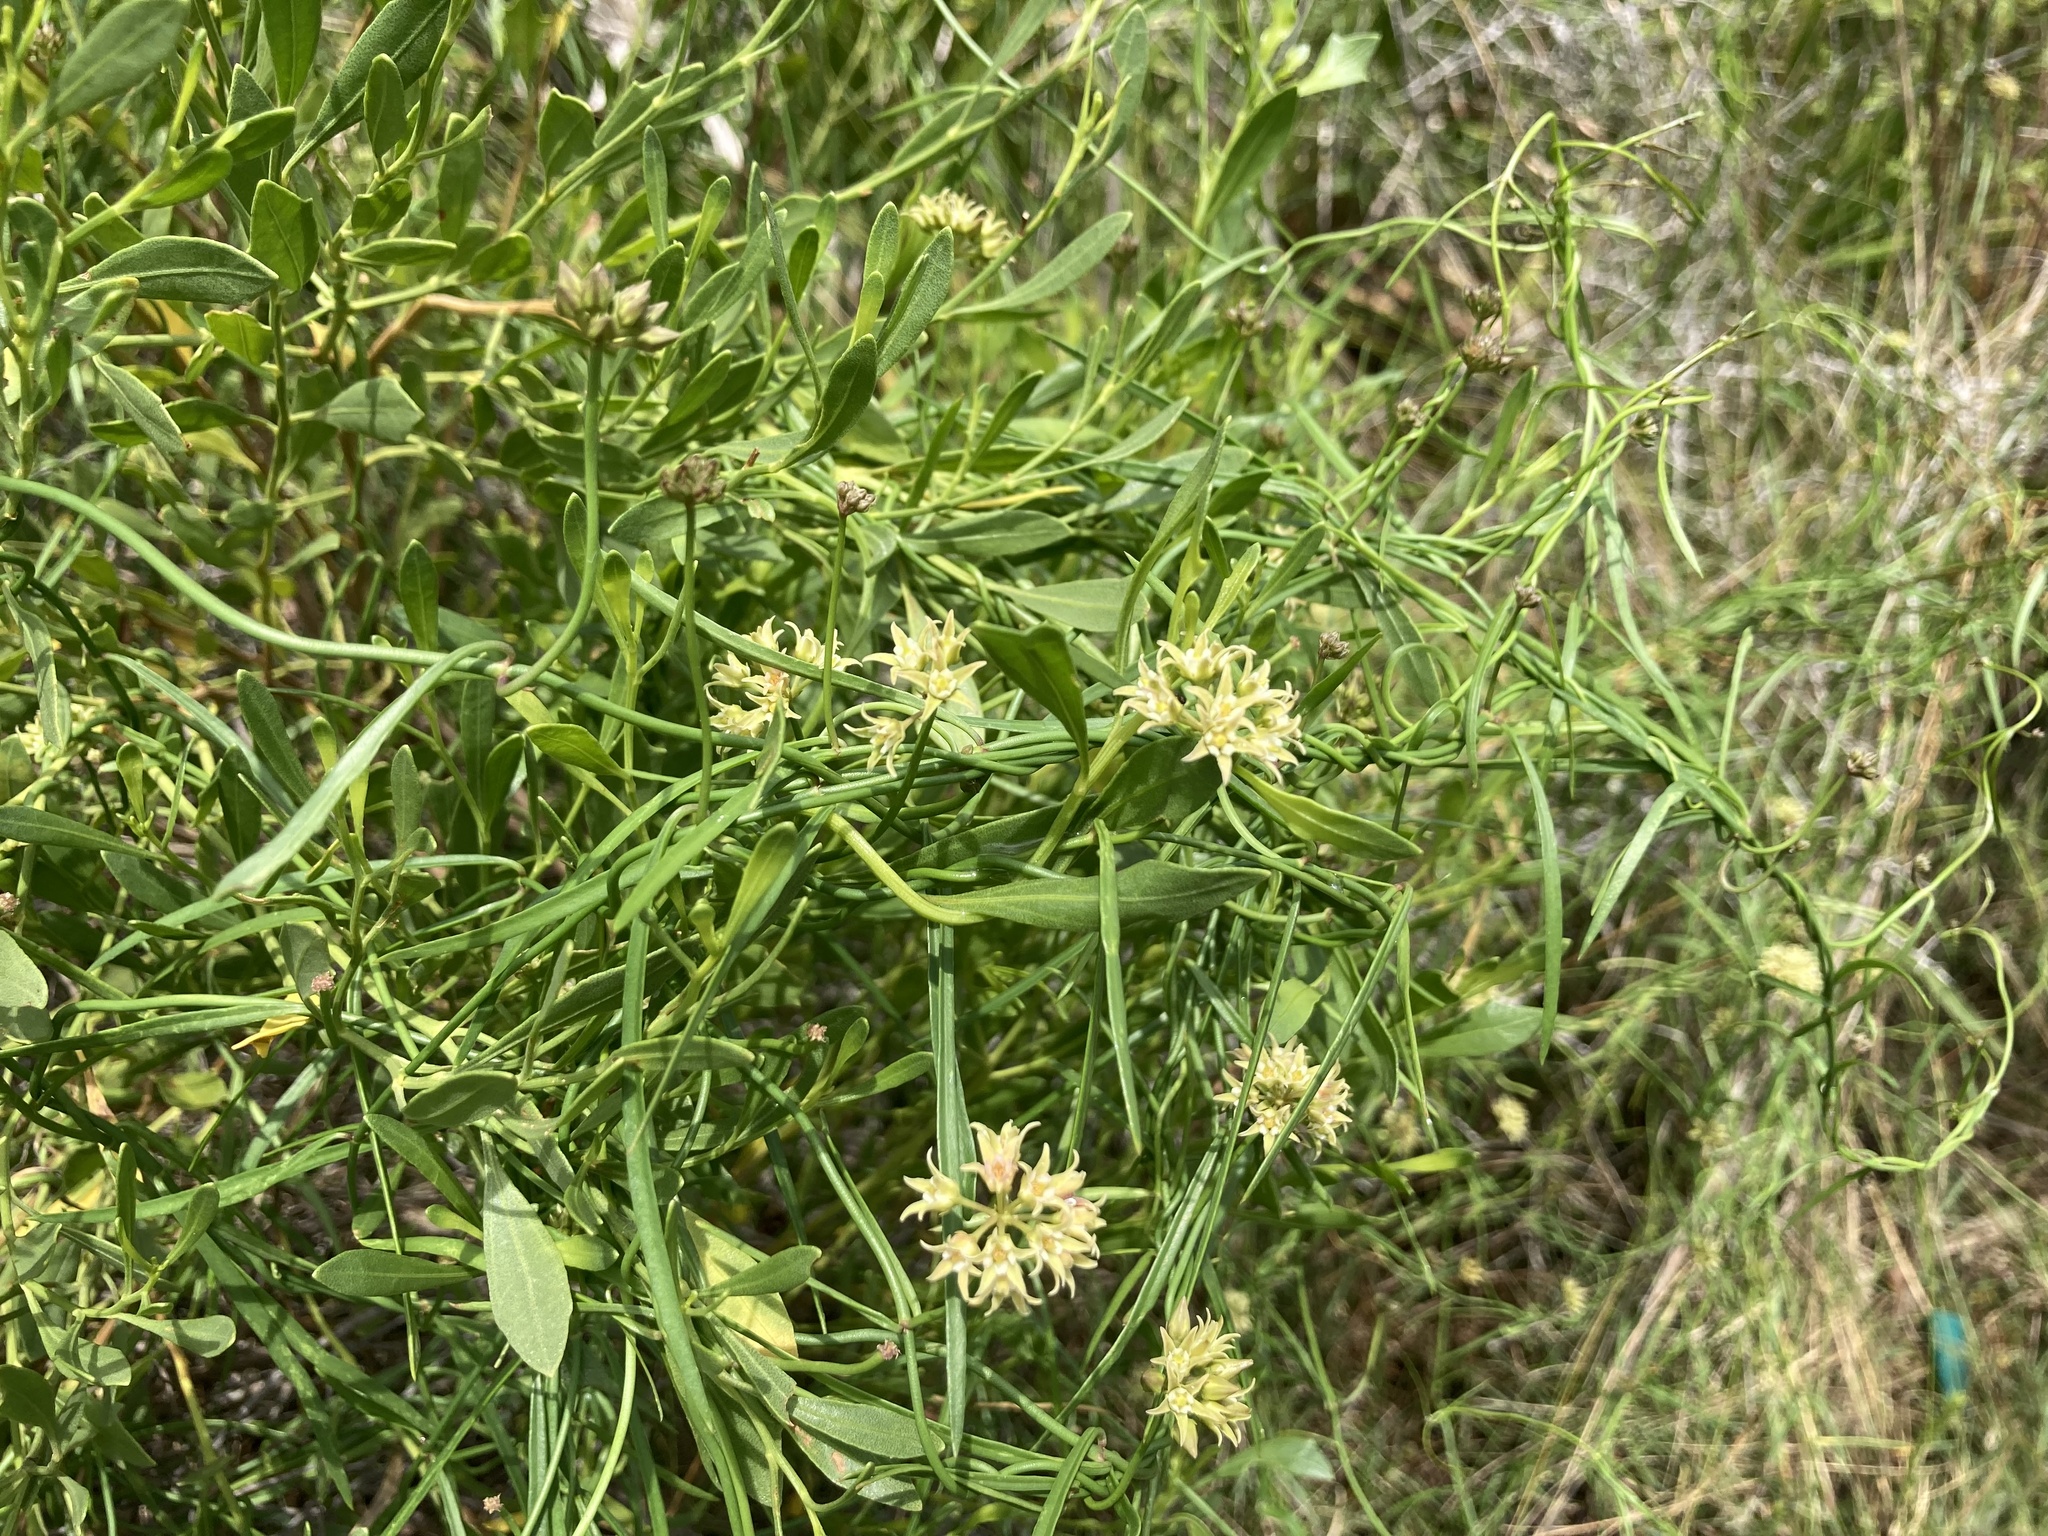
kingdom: Plantae
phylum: Tracheophyta
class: Magnoliopsida
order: Gentianales
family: Apocynaceae
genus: Pattalias
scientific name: Pattalias
